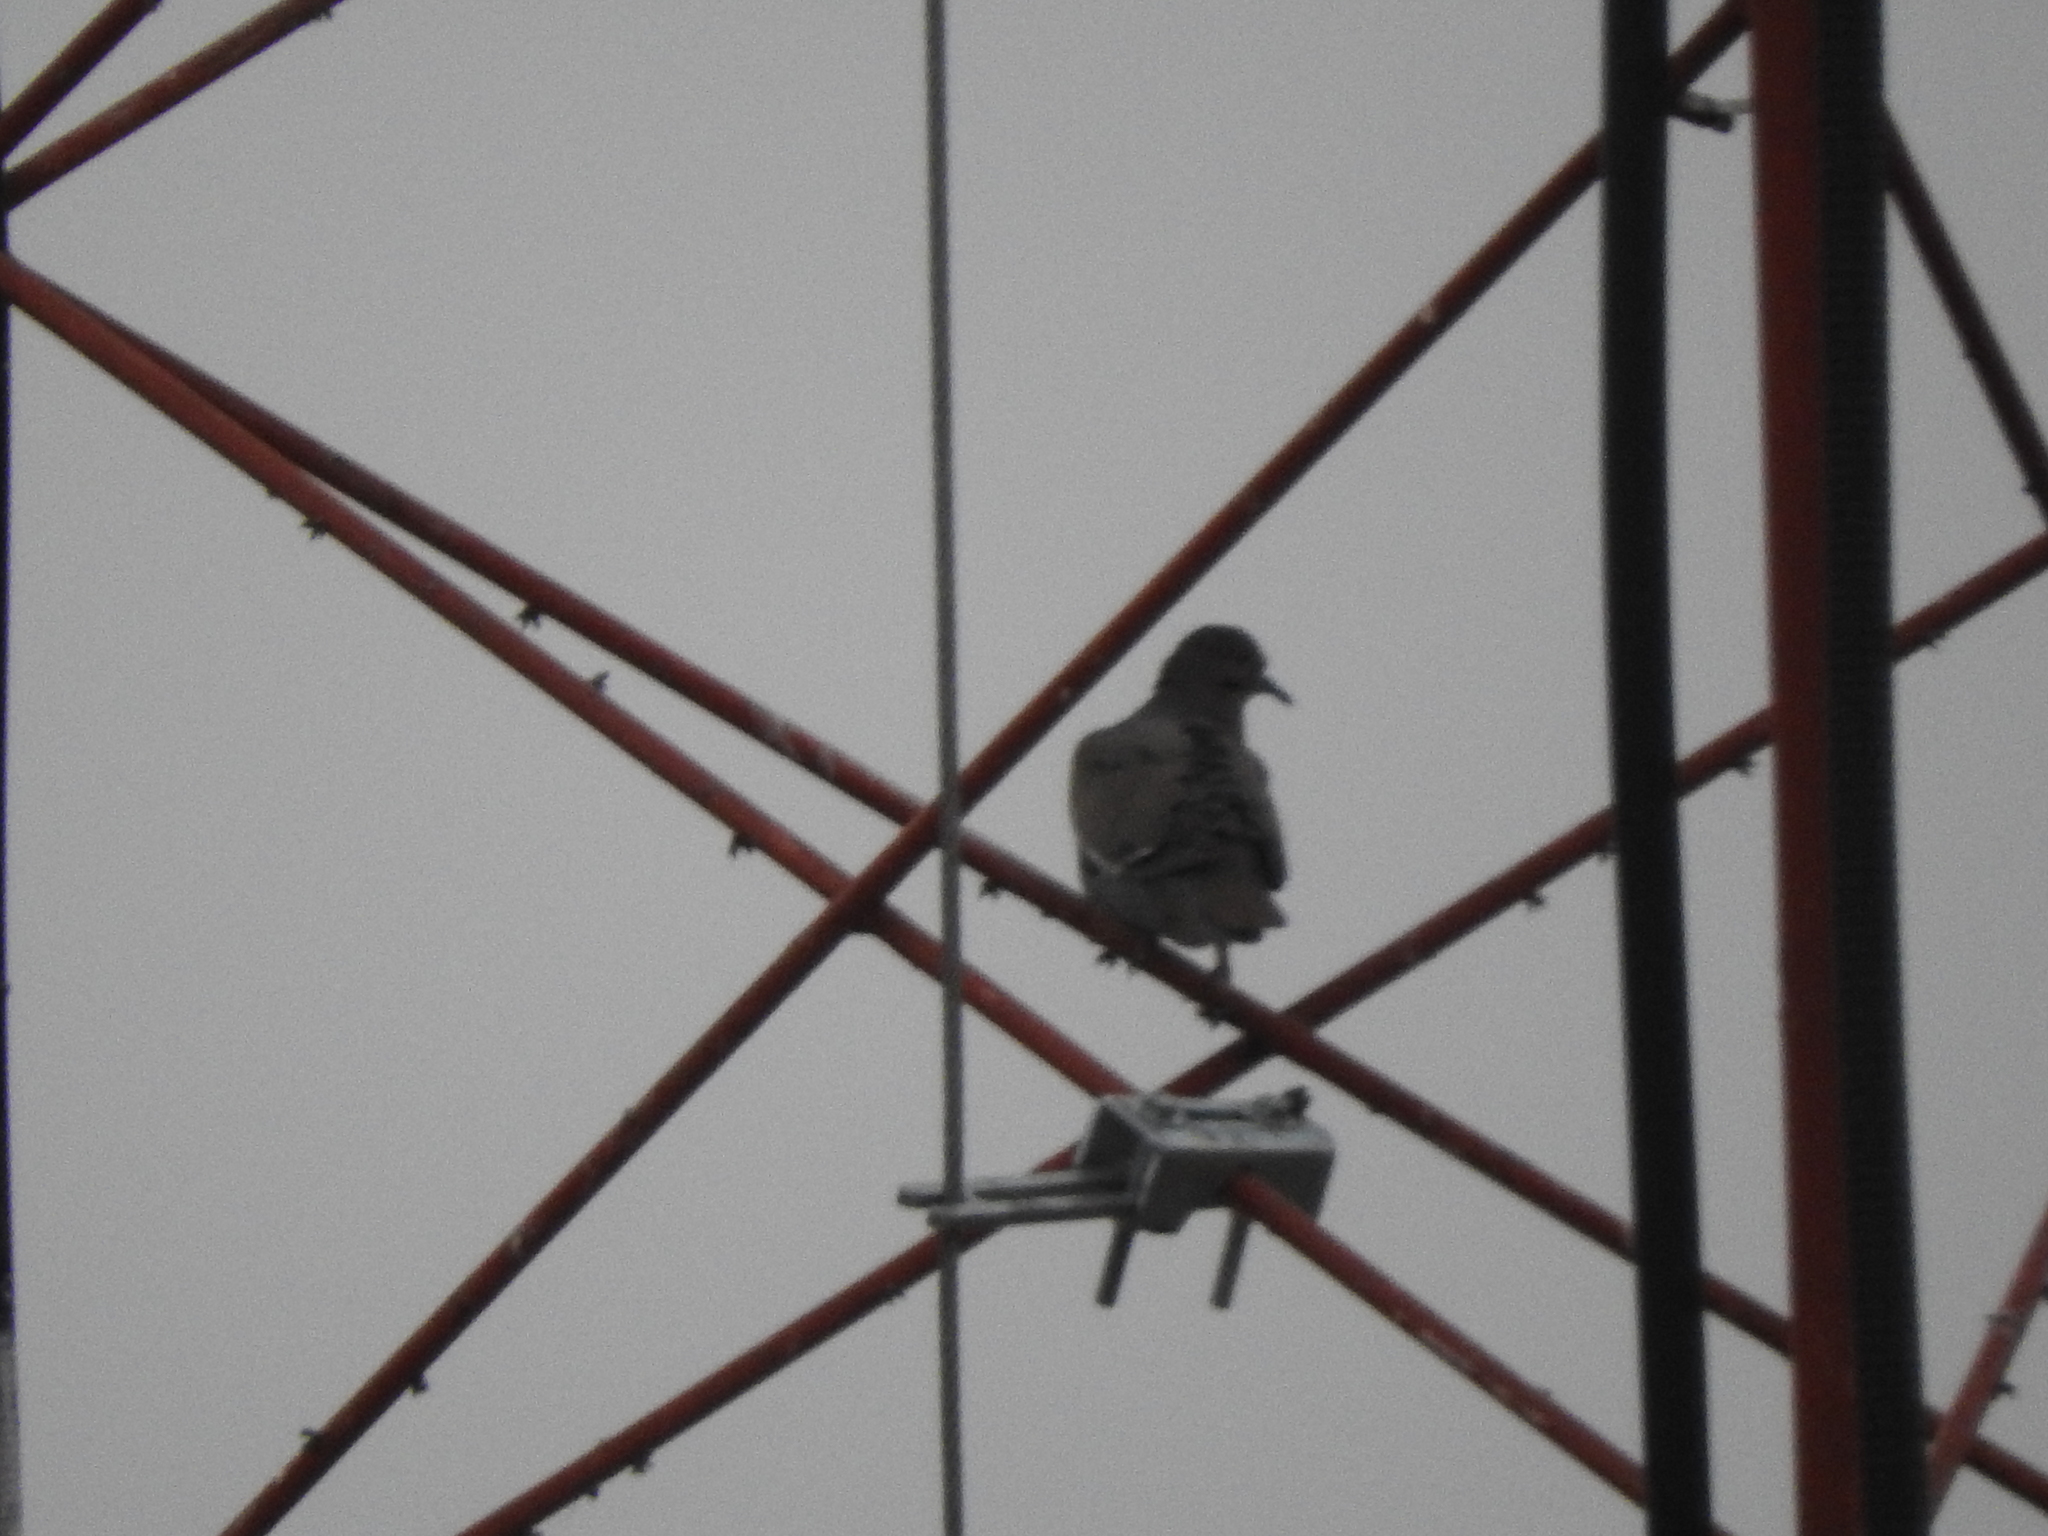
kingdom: Animalia
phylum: Chordata
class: Aves
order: Columbiformes
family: Columbidae
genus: Streptopelia
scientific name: Streptopelia decaocto
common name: Eurasian collared dove
